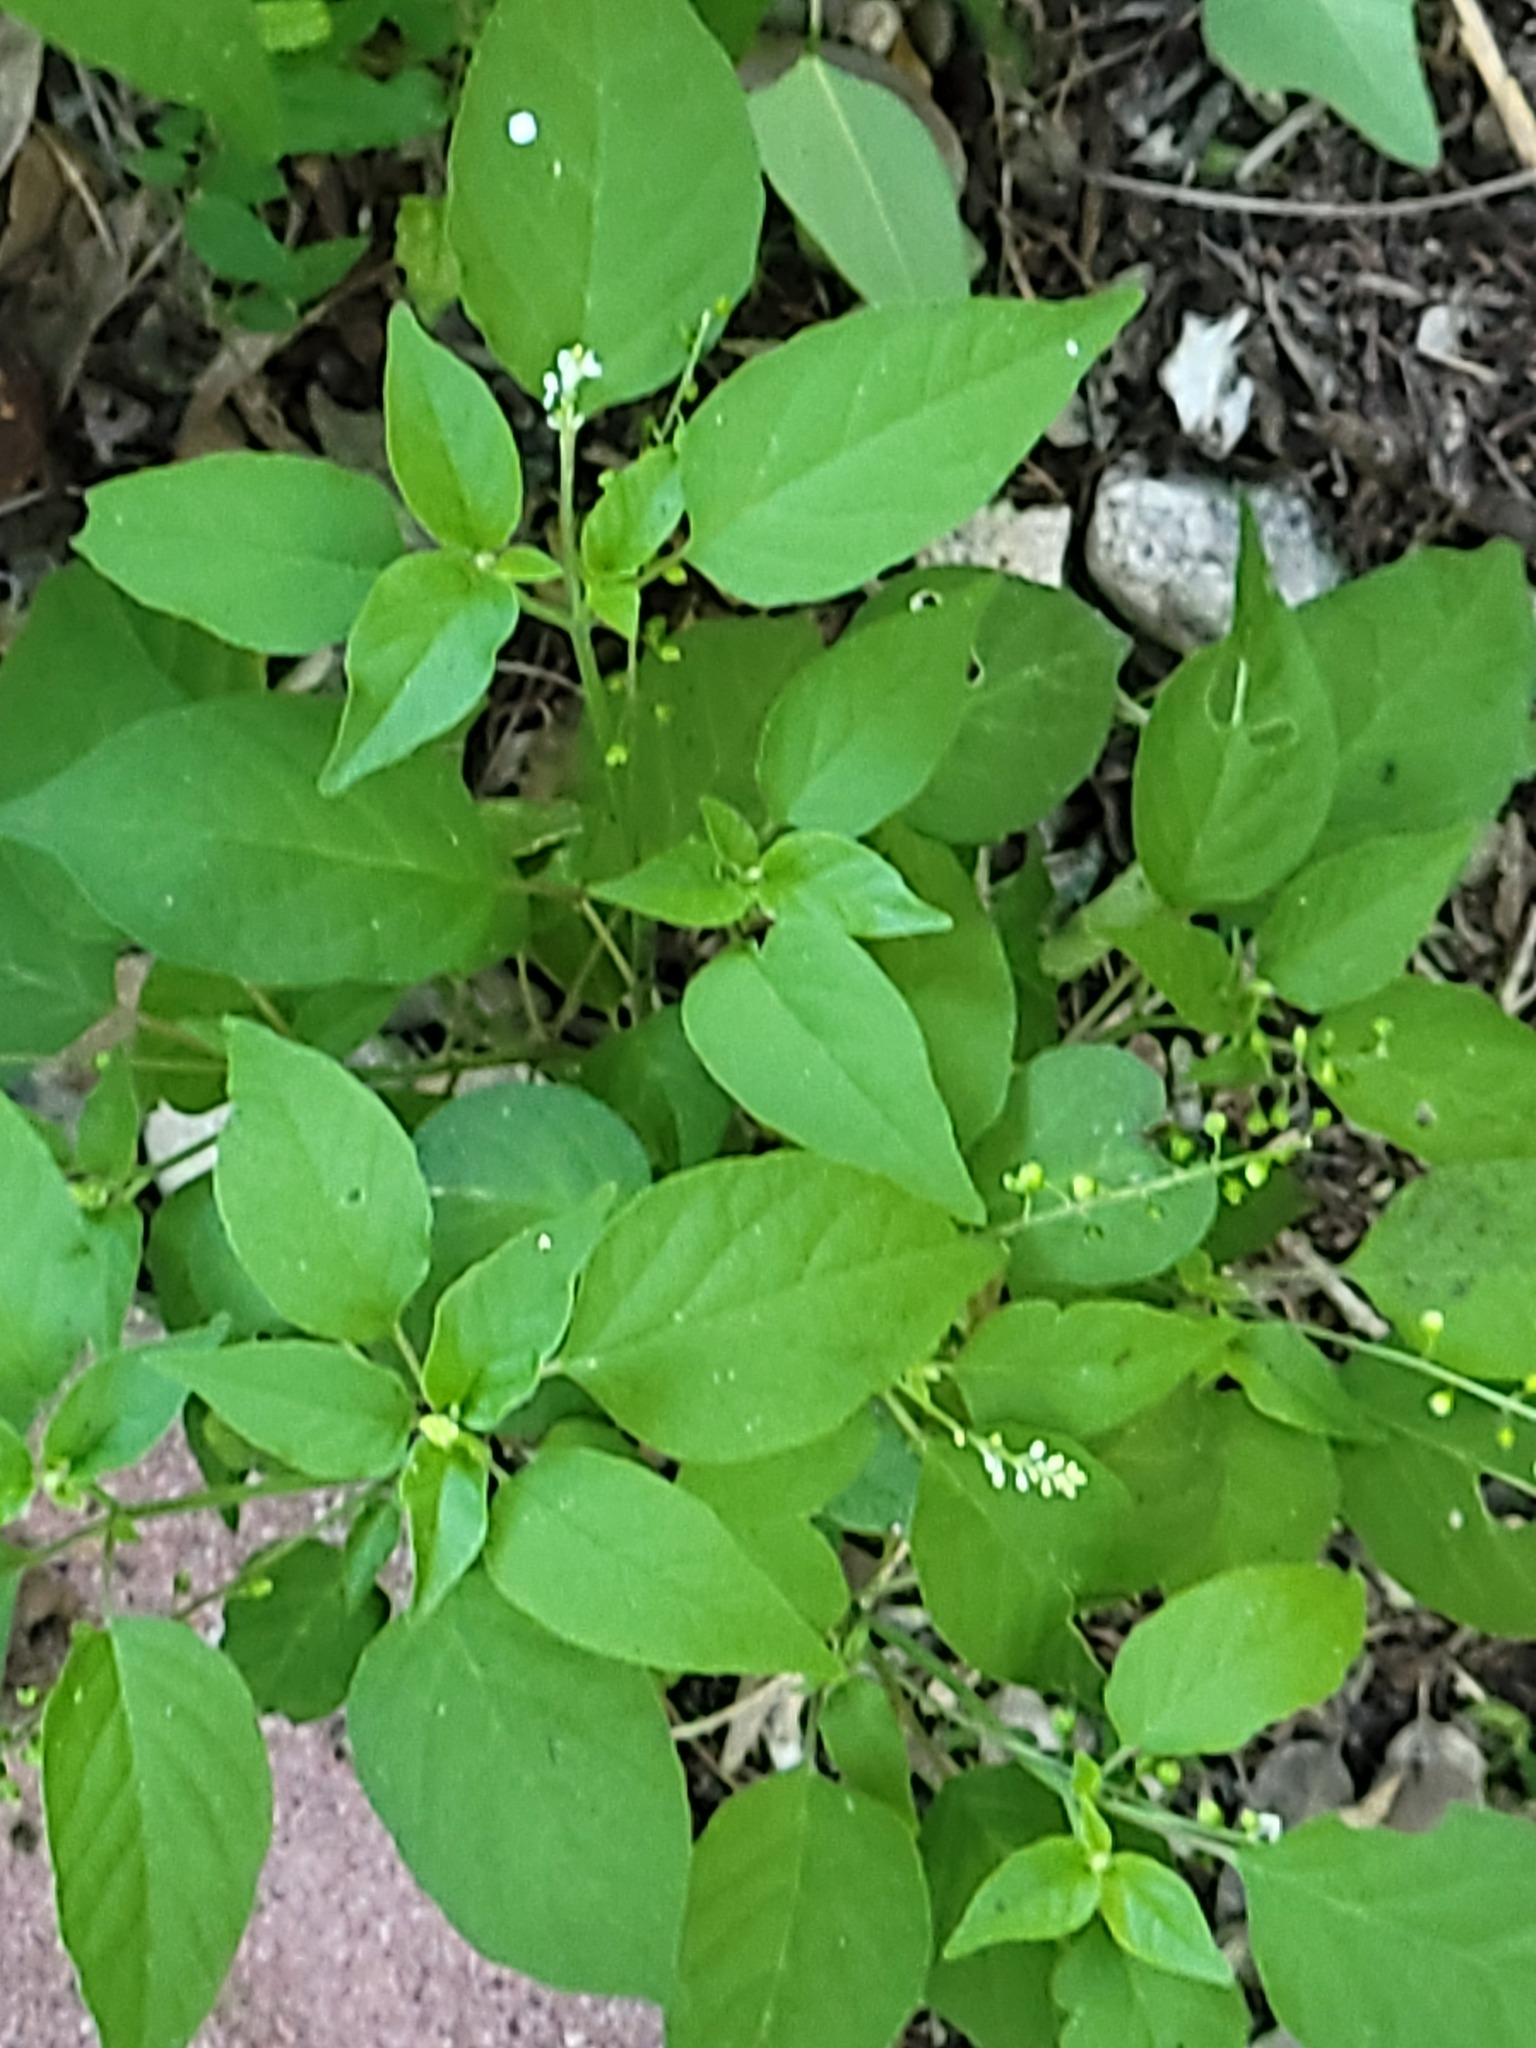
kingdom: Plantae
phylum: Tracheophyta
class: Magnoliopsida
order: Caryophyllales
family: Phytolaccaceae
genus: Rivina
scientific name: Rivina humilis
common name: Rougeplant
